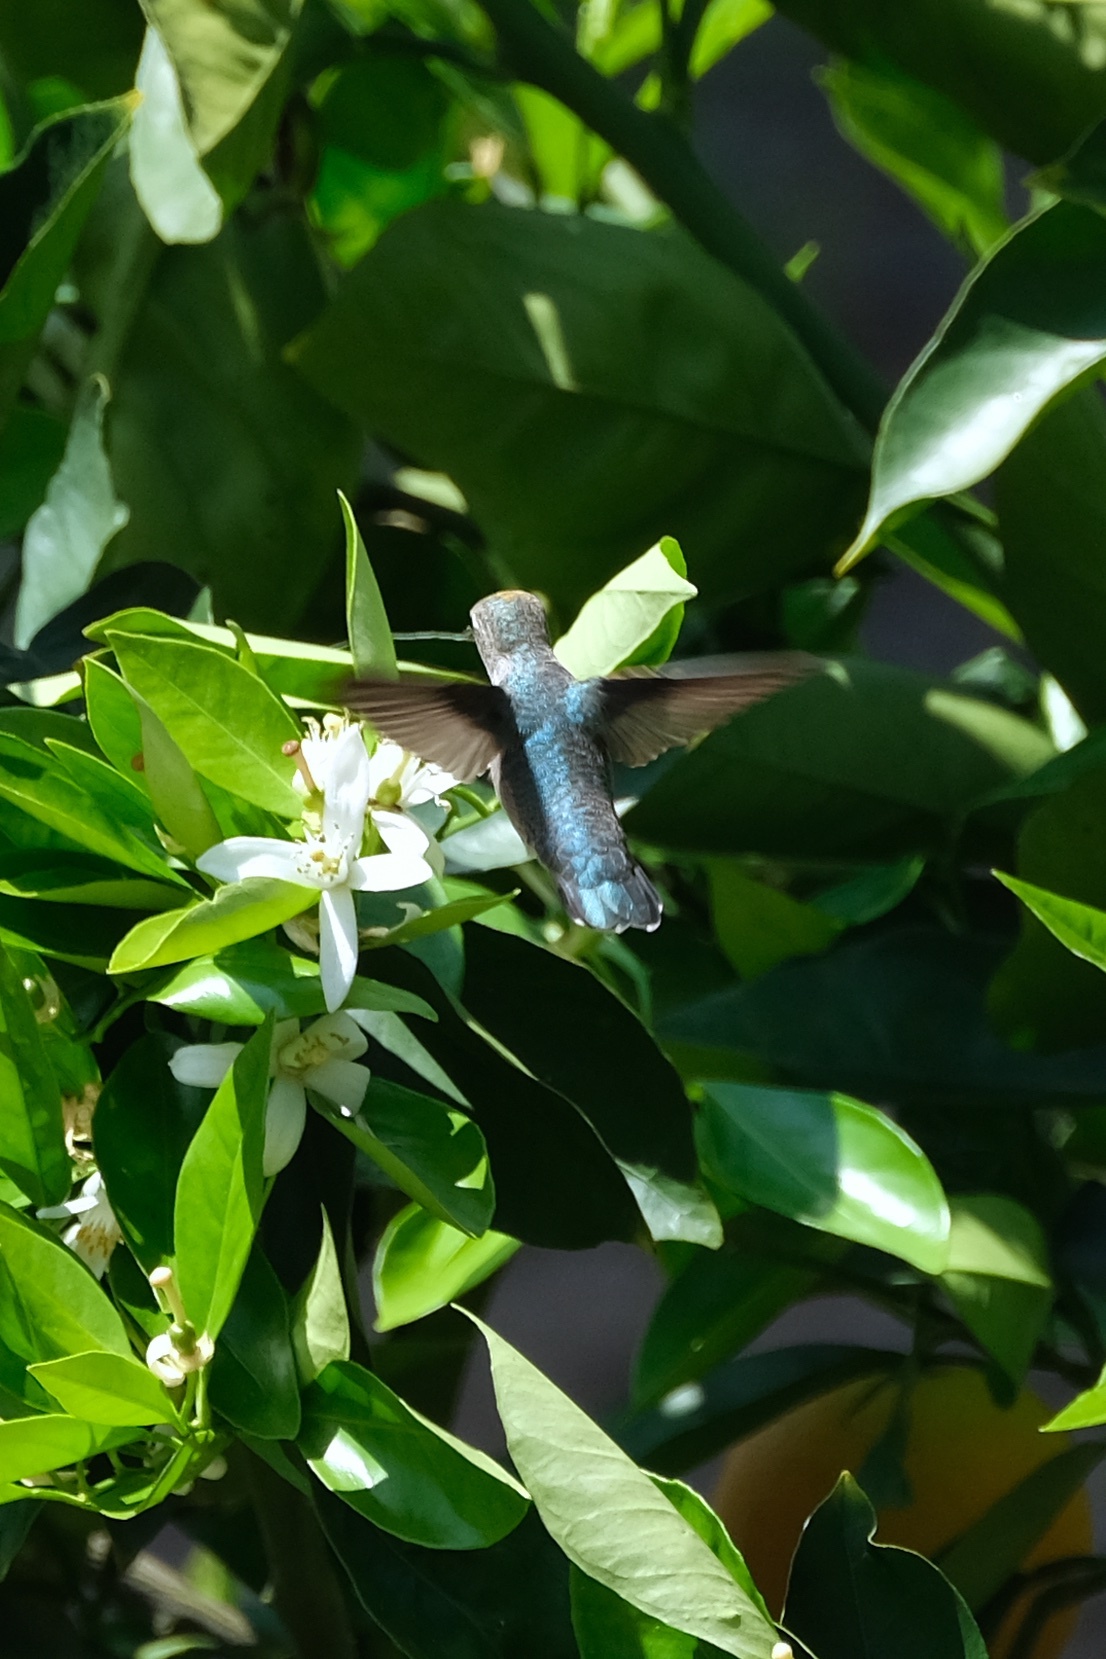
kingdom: Animalia
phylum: Chordata
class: Aves
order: Apodiformes
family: Trochilidae
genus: Calypte
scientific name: Calypte anna
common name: Anna's hummingbird
